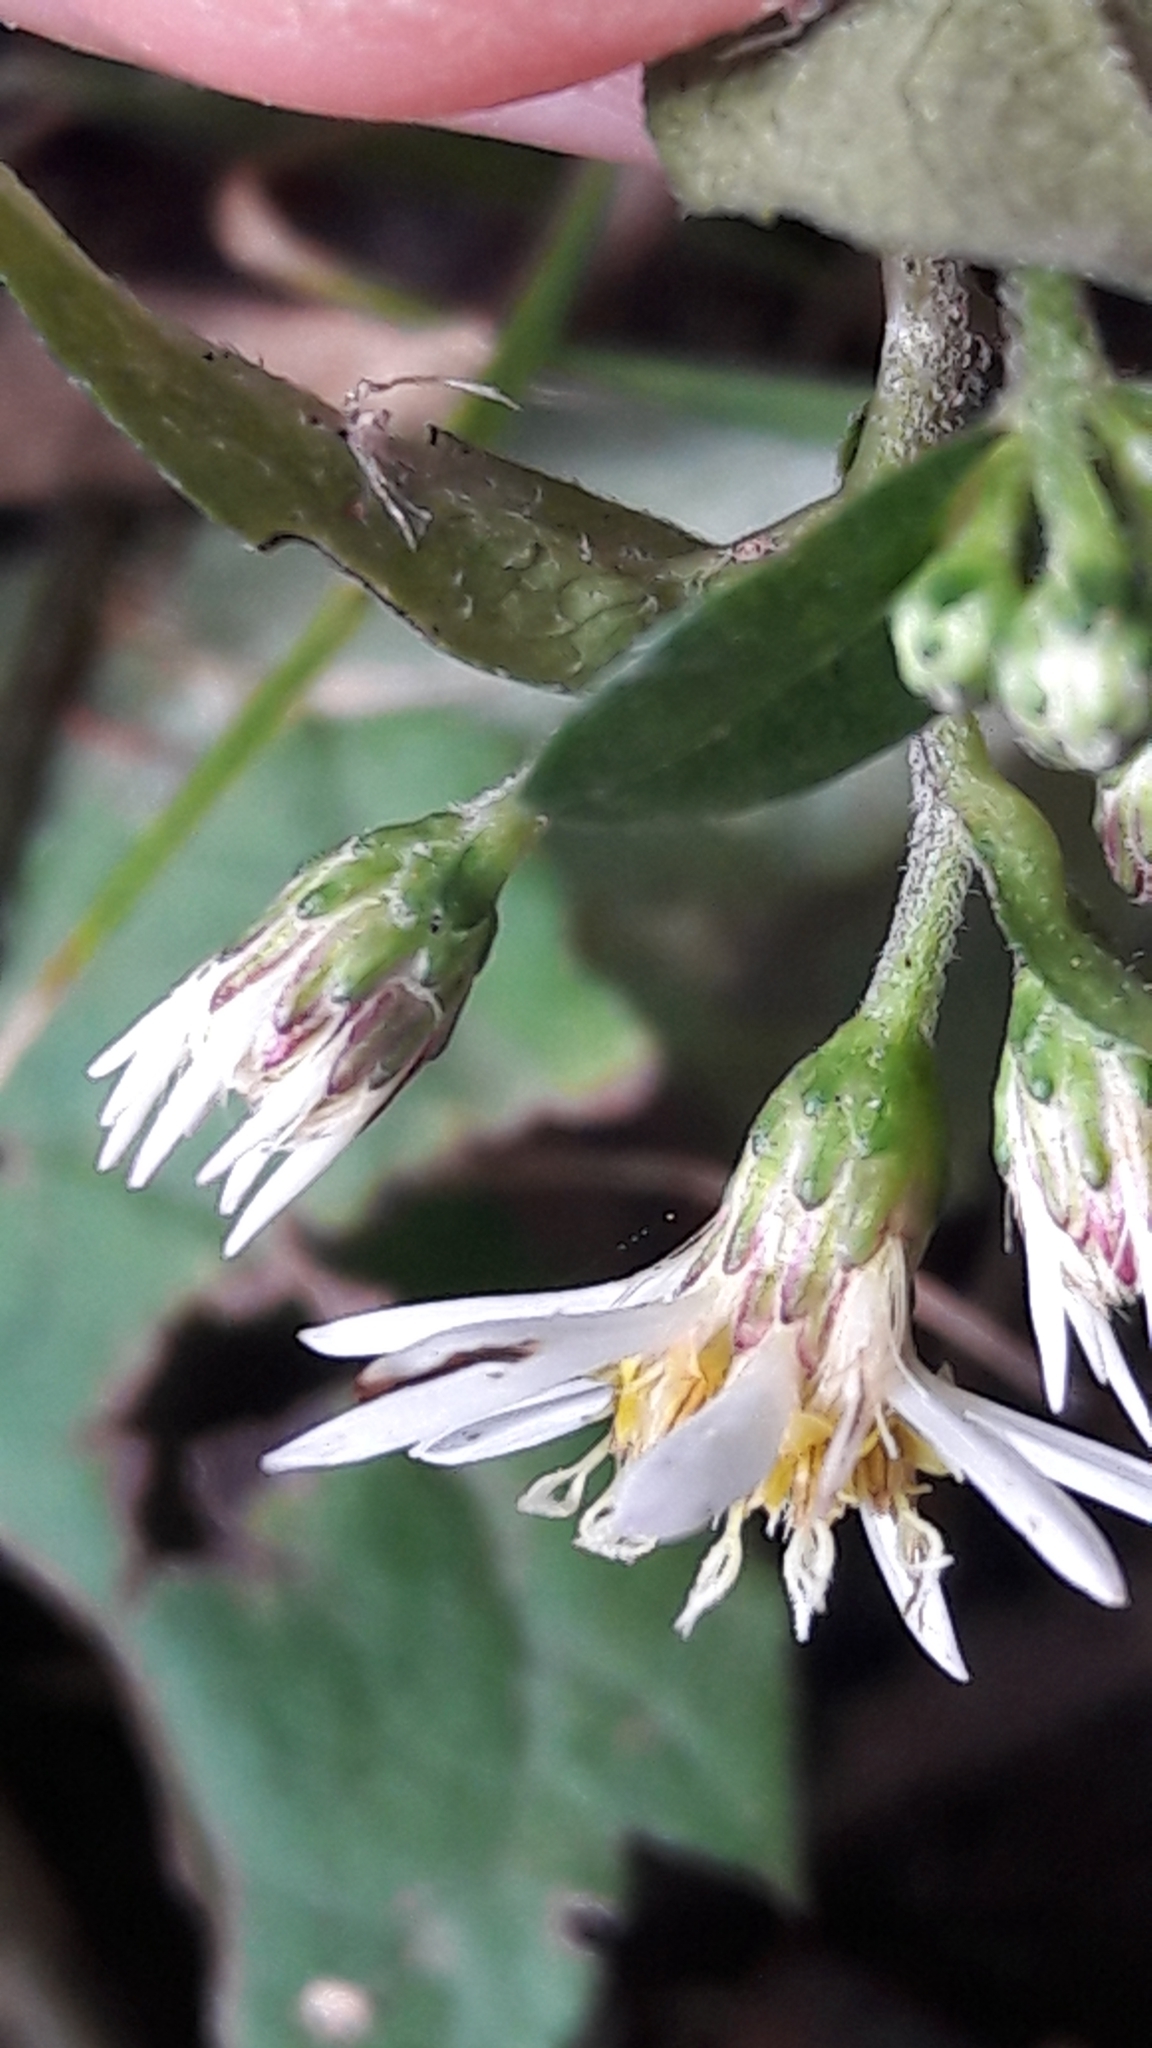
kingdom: Plantae
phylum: Tracheophyta
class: Magnoliopsida
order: Asterales
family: Asteraceae
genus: Eurybia
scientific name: Eurybia divaricata
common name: White wood aster
